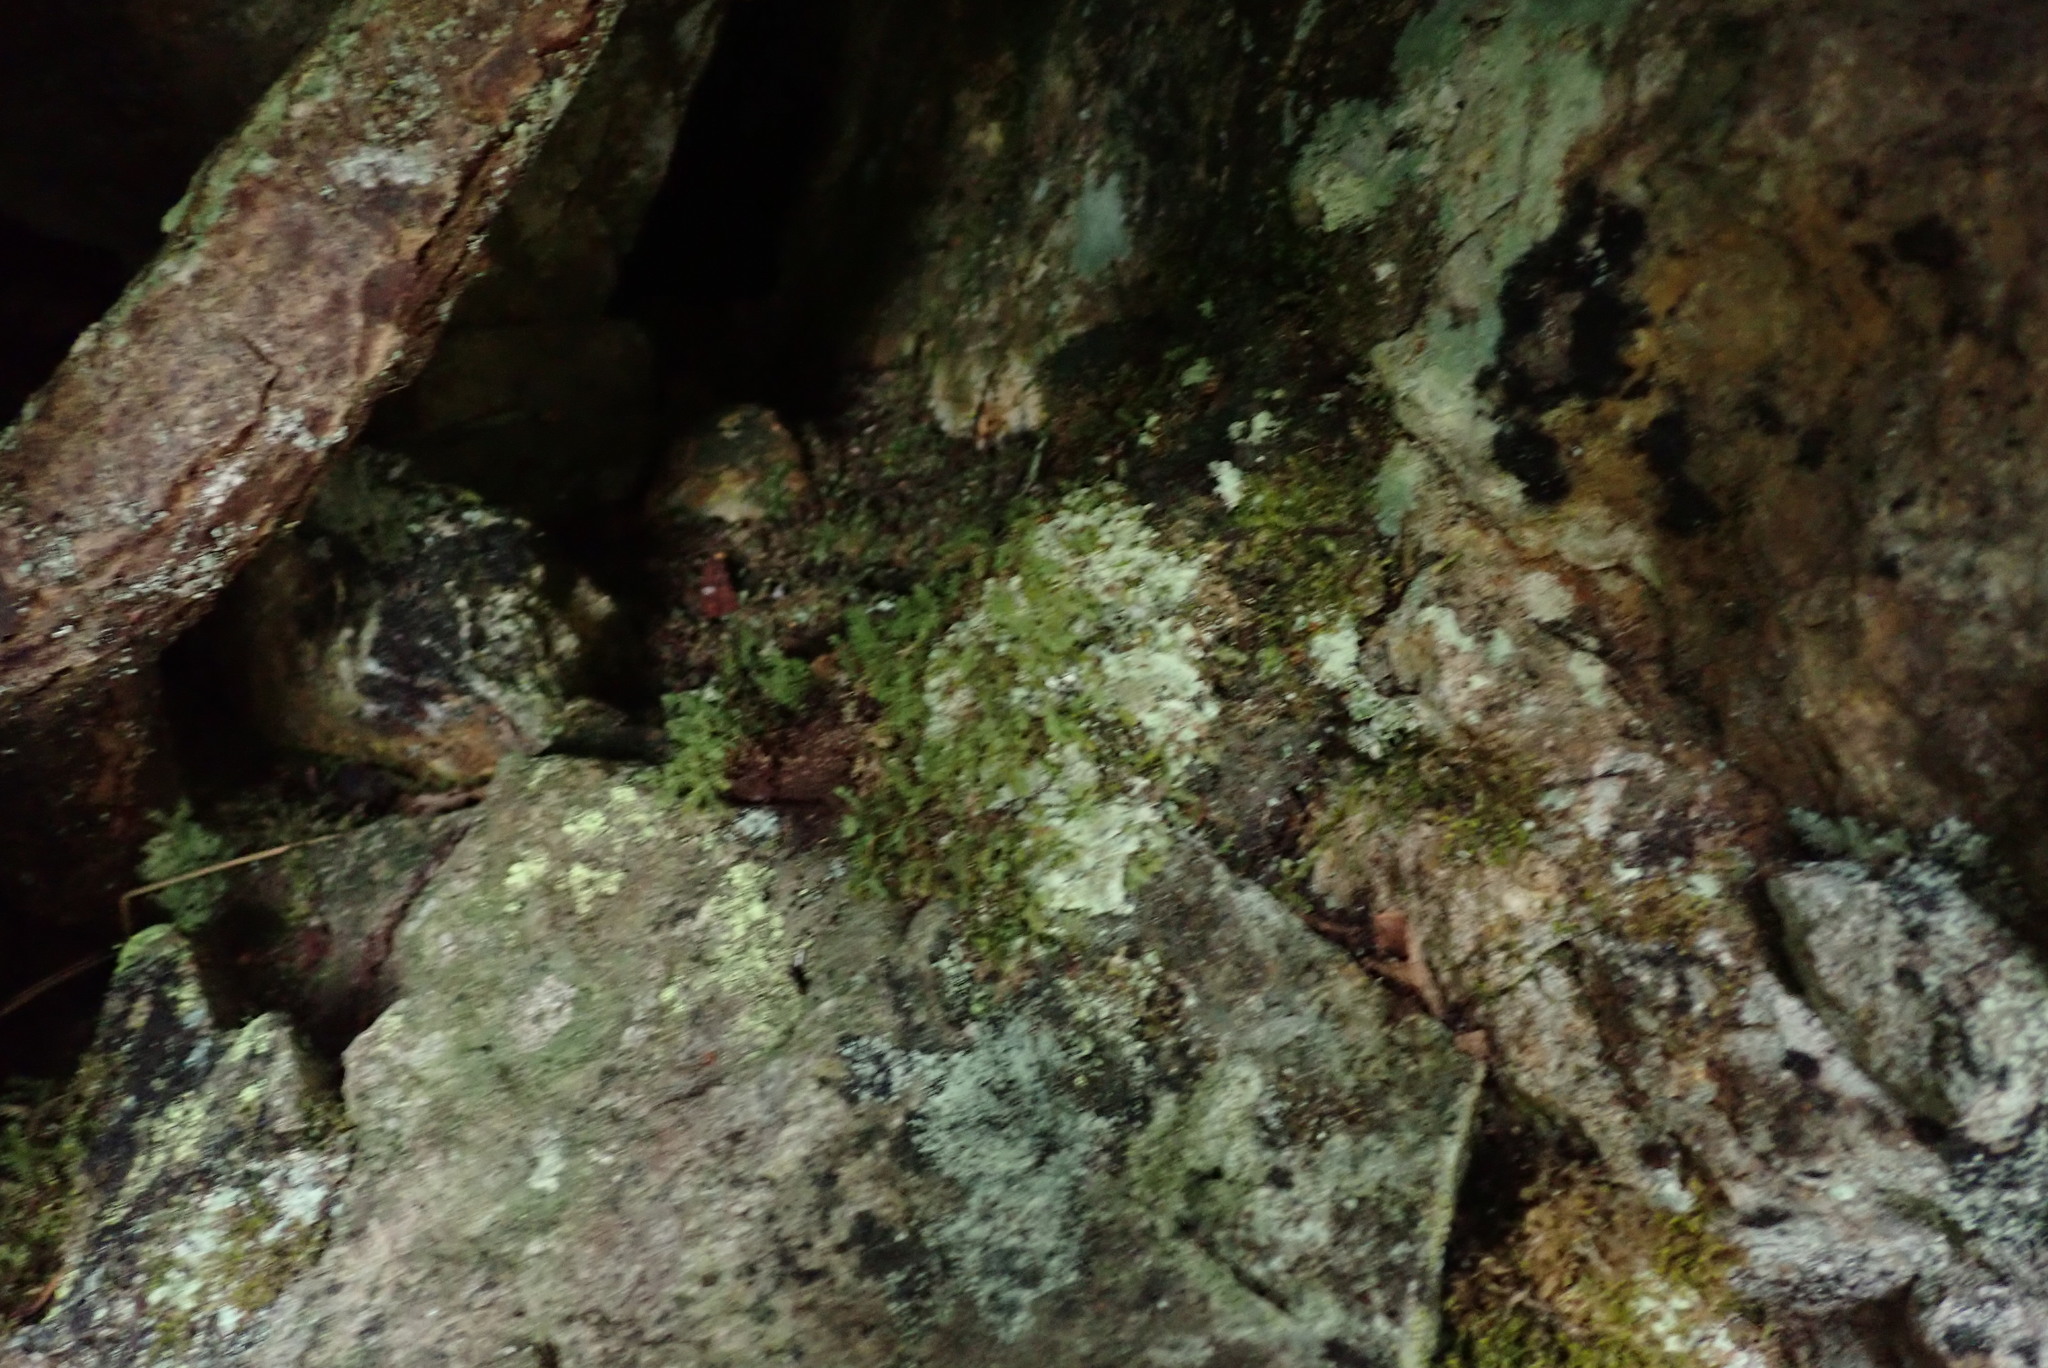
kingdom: Plantae
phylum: Tracheophyta
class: Magnoliopsida
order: Dipsacales
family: Viburnaceae
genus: Viburnum
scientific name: Viburnum edule
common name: Mooseberry
